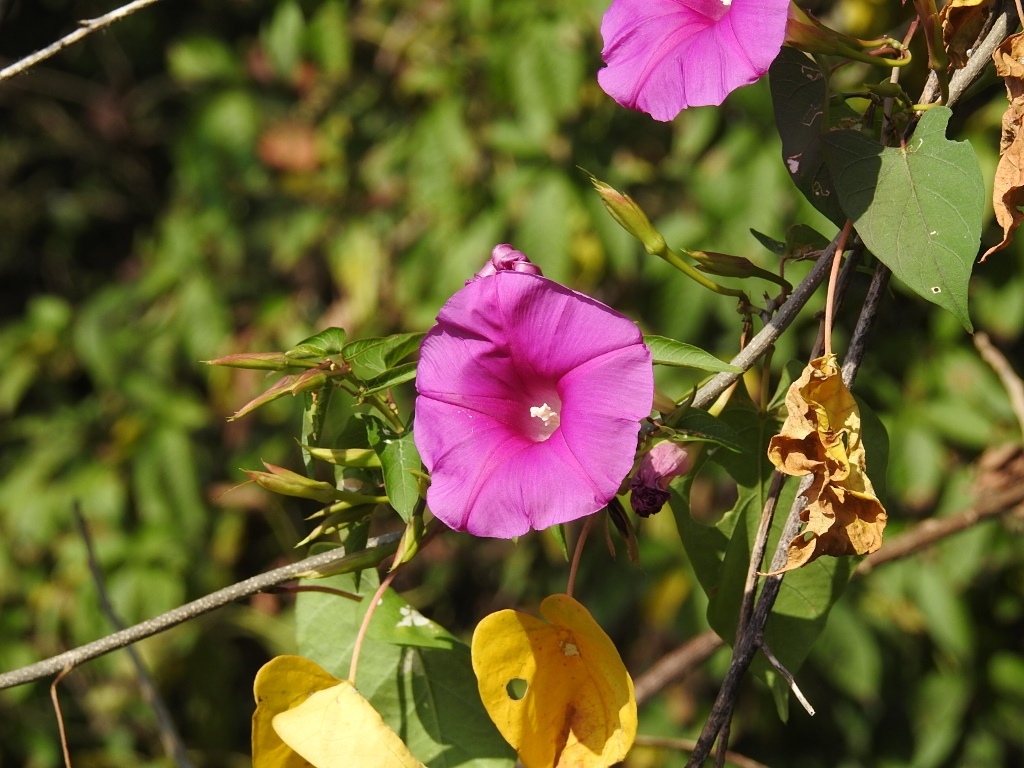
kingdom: Plantae
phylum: Tracheophyta
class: Magnoliopsida
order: Solanales
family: Convolvulaceae
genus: Ipomoea
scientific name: Ipomoea bernoulliana
